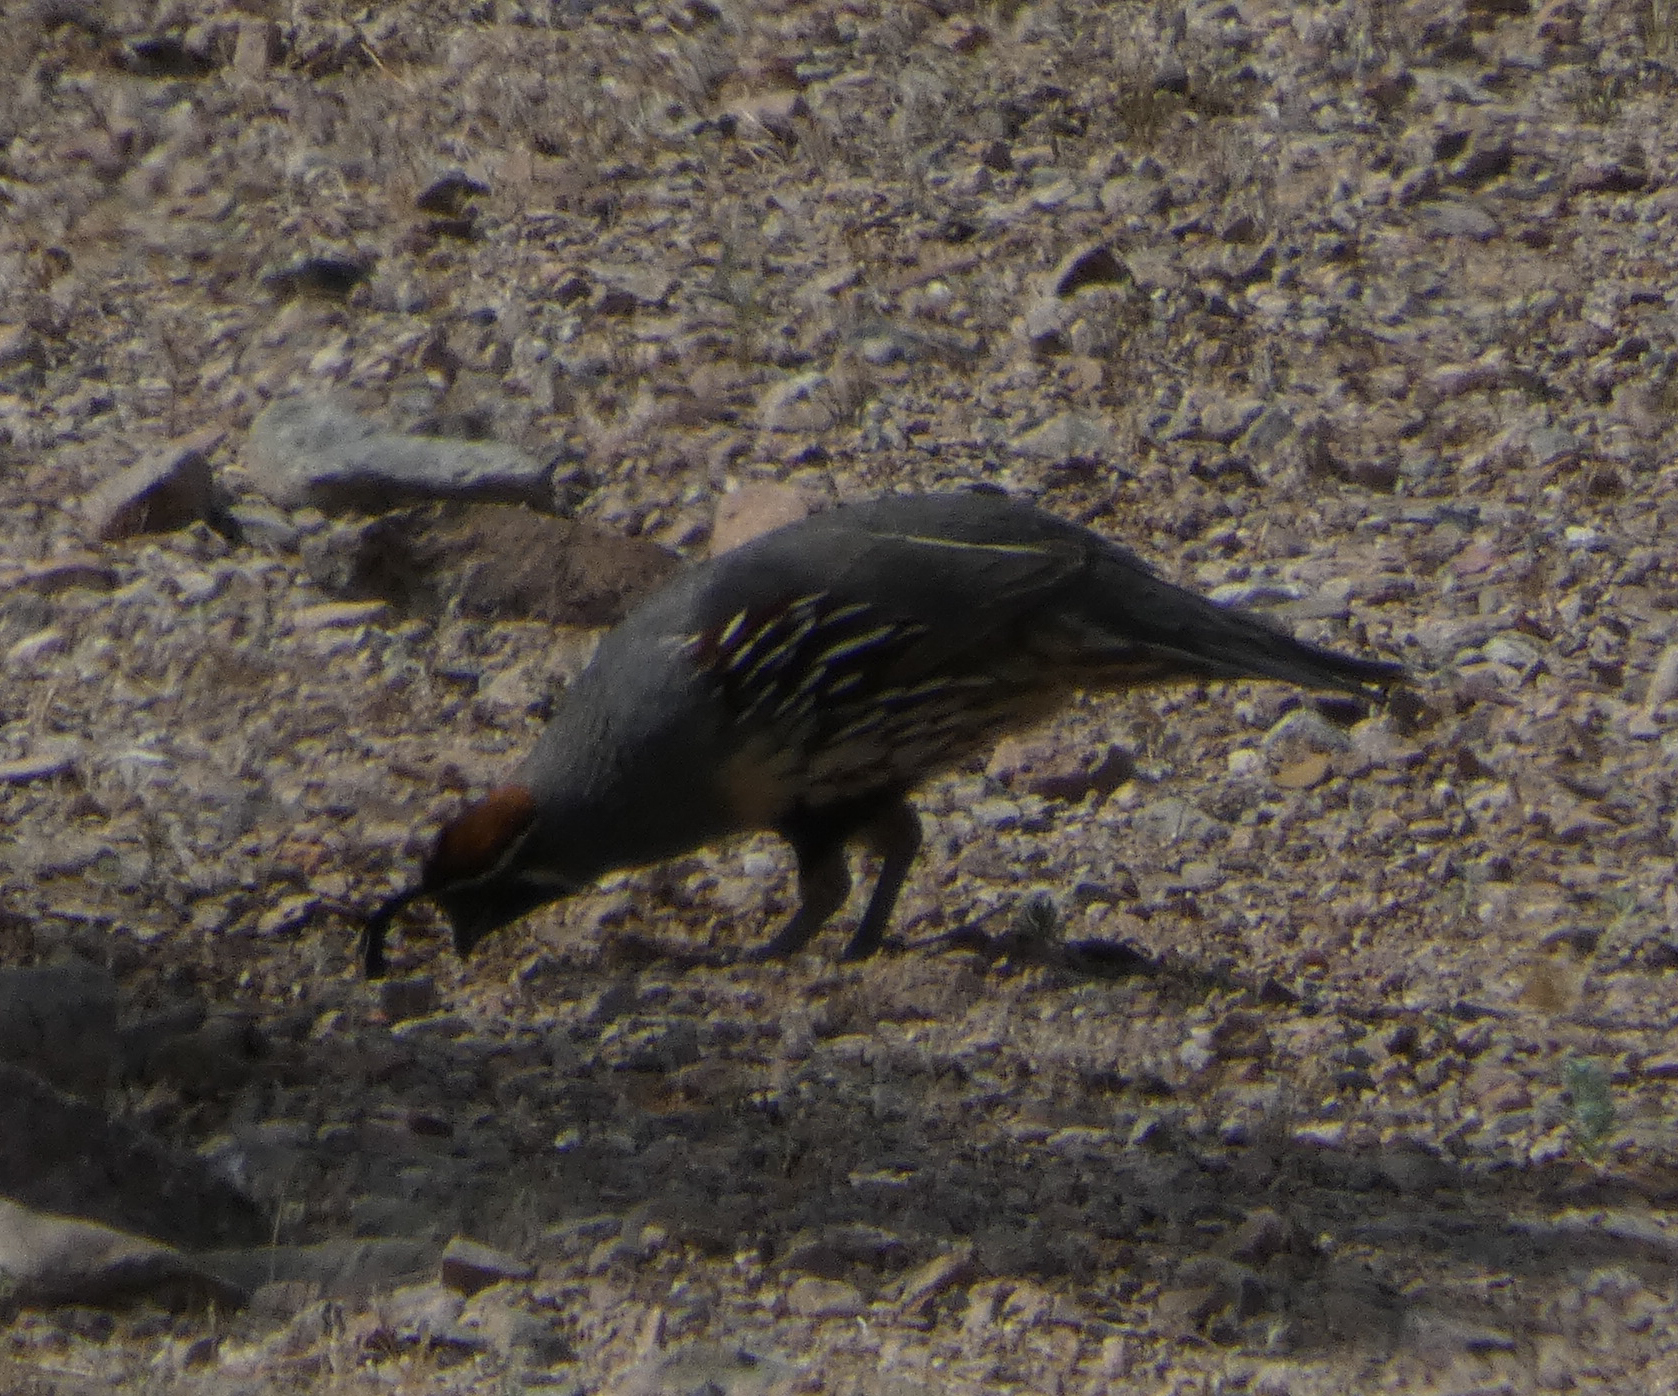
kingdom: Animalia
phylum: Chordata
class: Aves
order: Galliformes
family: Odontophoridae
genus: Callipepla
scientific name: Callipepla gambelii
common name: Gambel's quail
